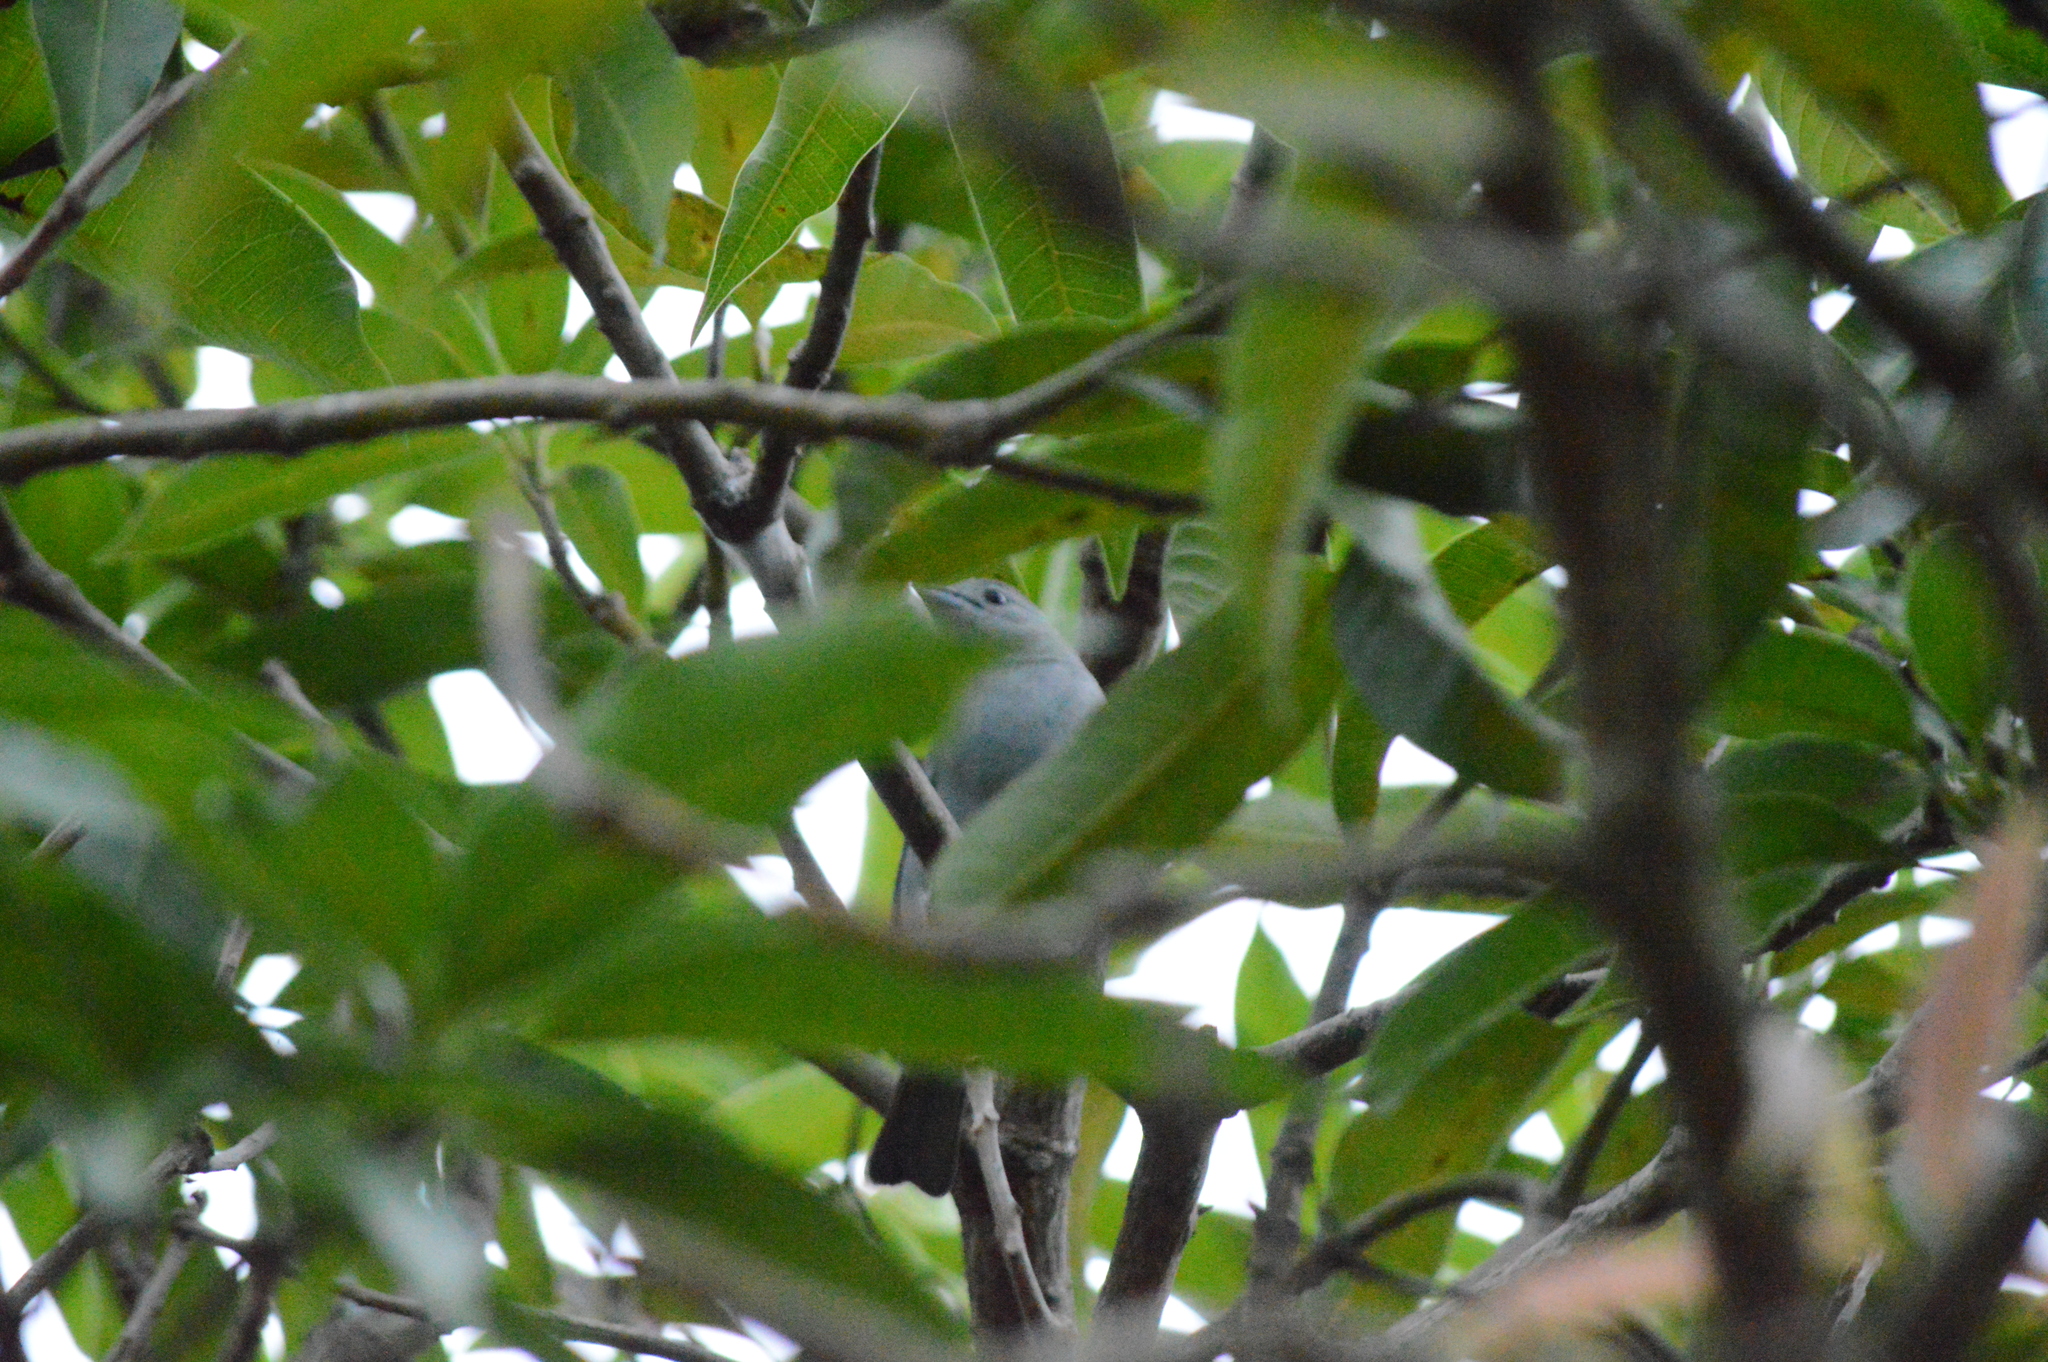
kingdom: Animalia
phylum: Chordata
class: Aves
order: Passeriformes
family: Thraupidae
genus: Thraupis
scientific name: Thraupis sayaca
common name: Sayaca tanager
